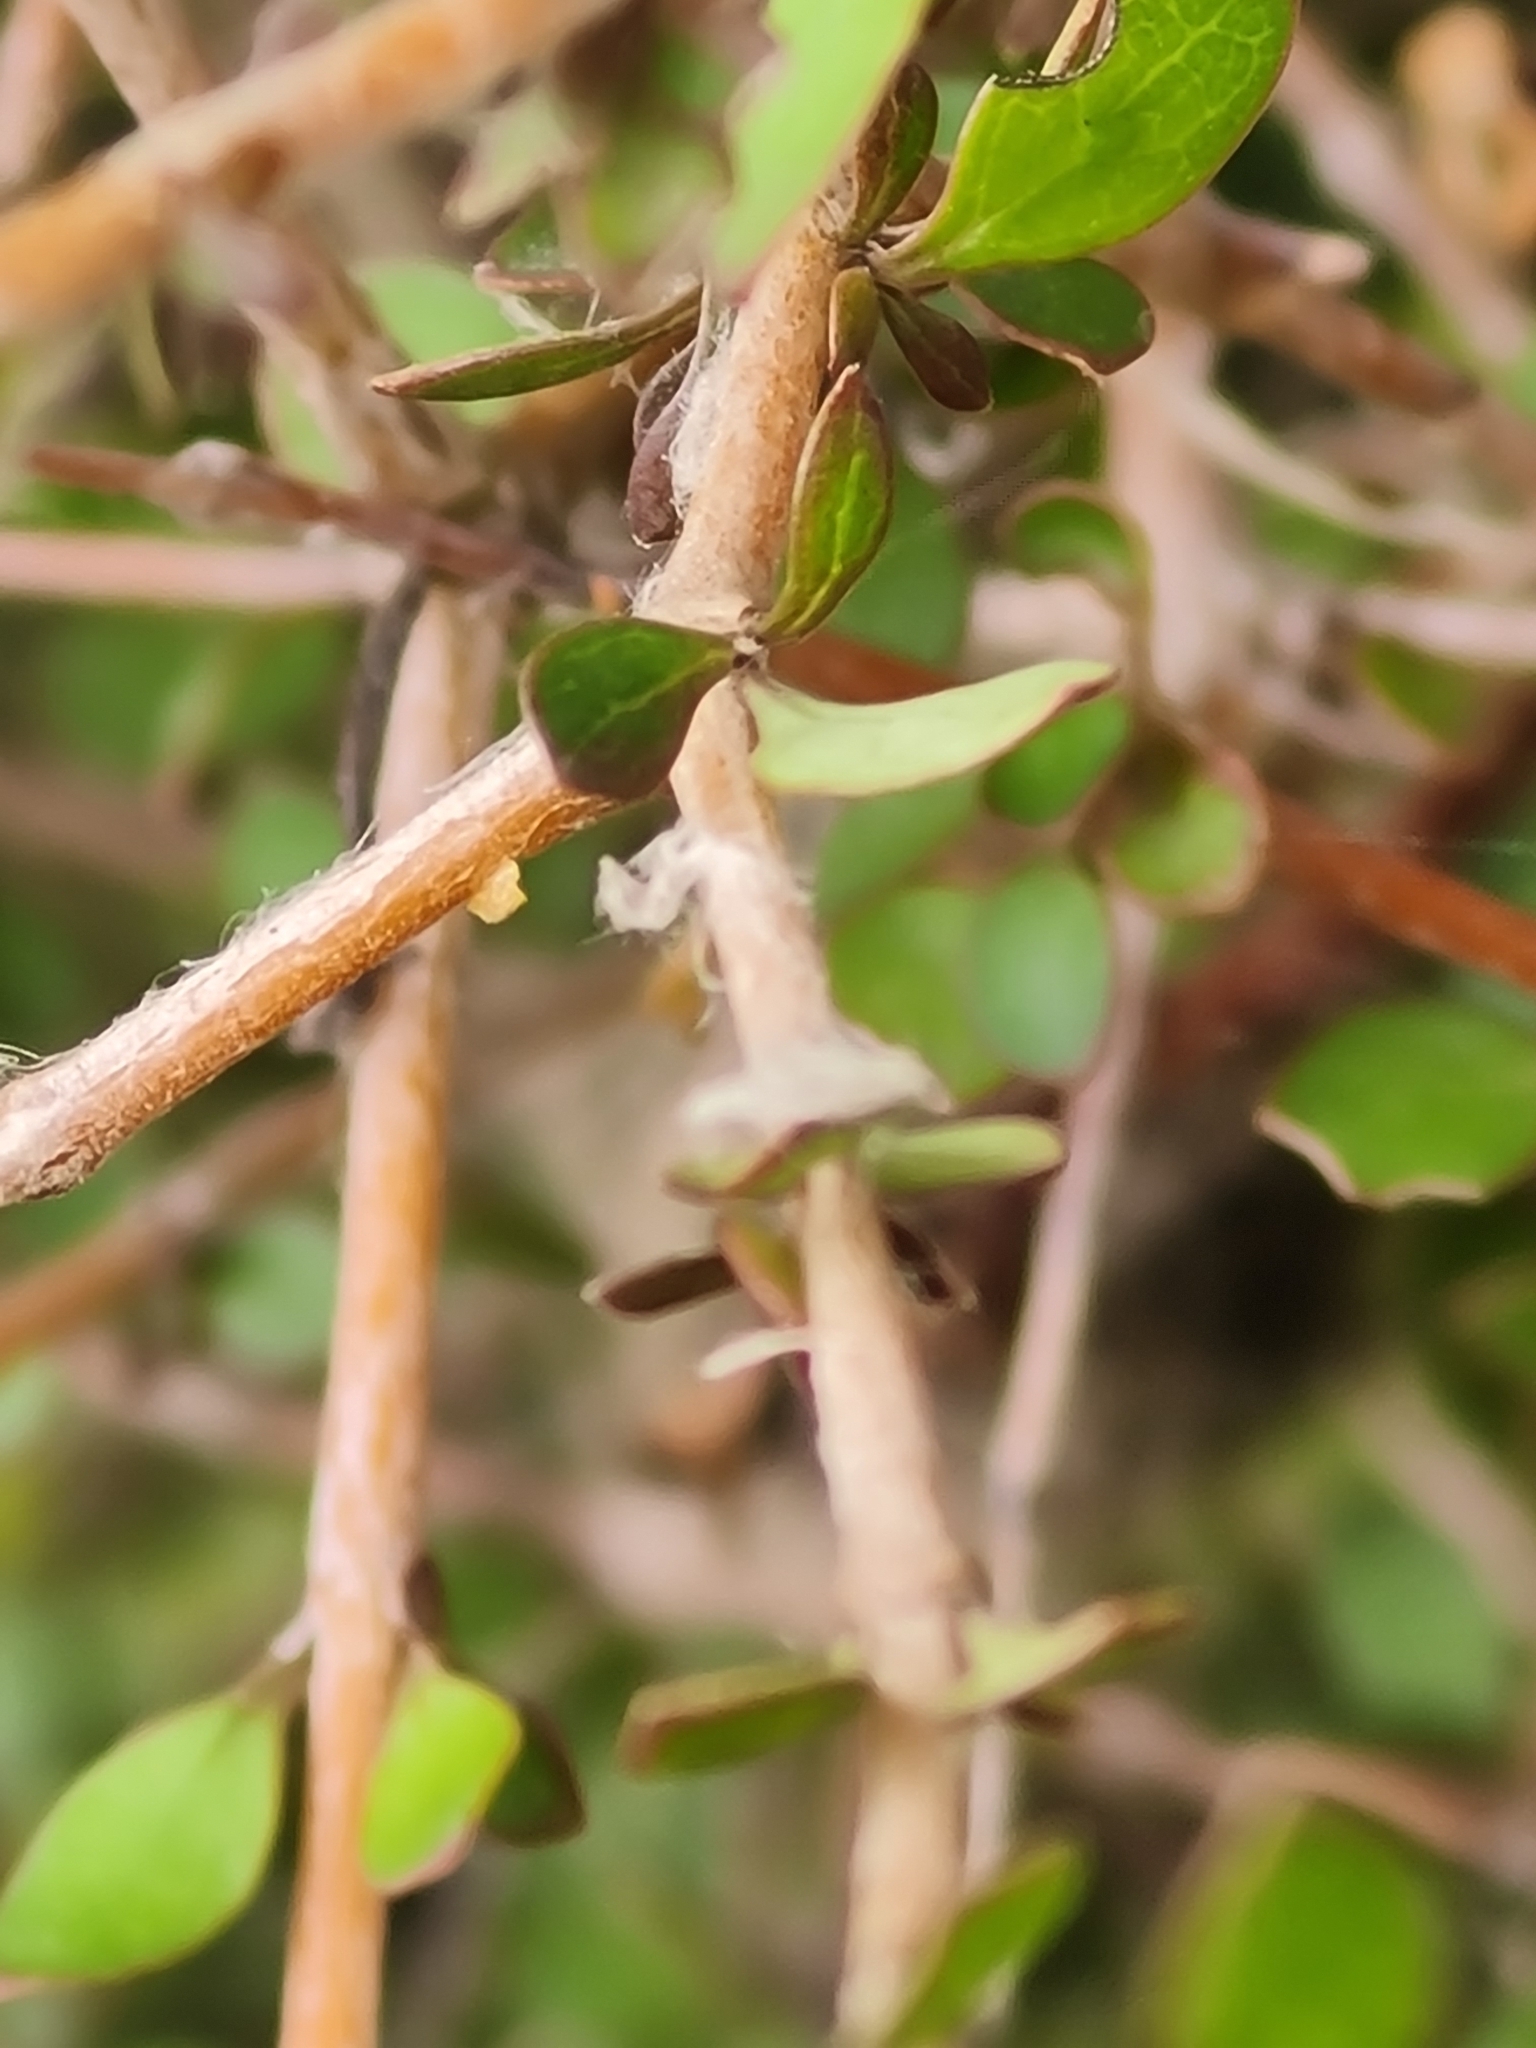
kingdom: Plantae
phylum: Tracheophyta
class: Magnoliopsida
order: Gentianales
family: Rubiaceae
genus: Coprosma
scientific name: Coprosma virescens
